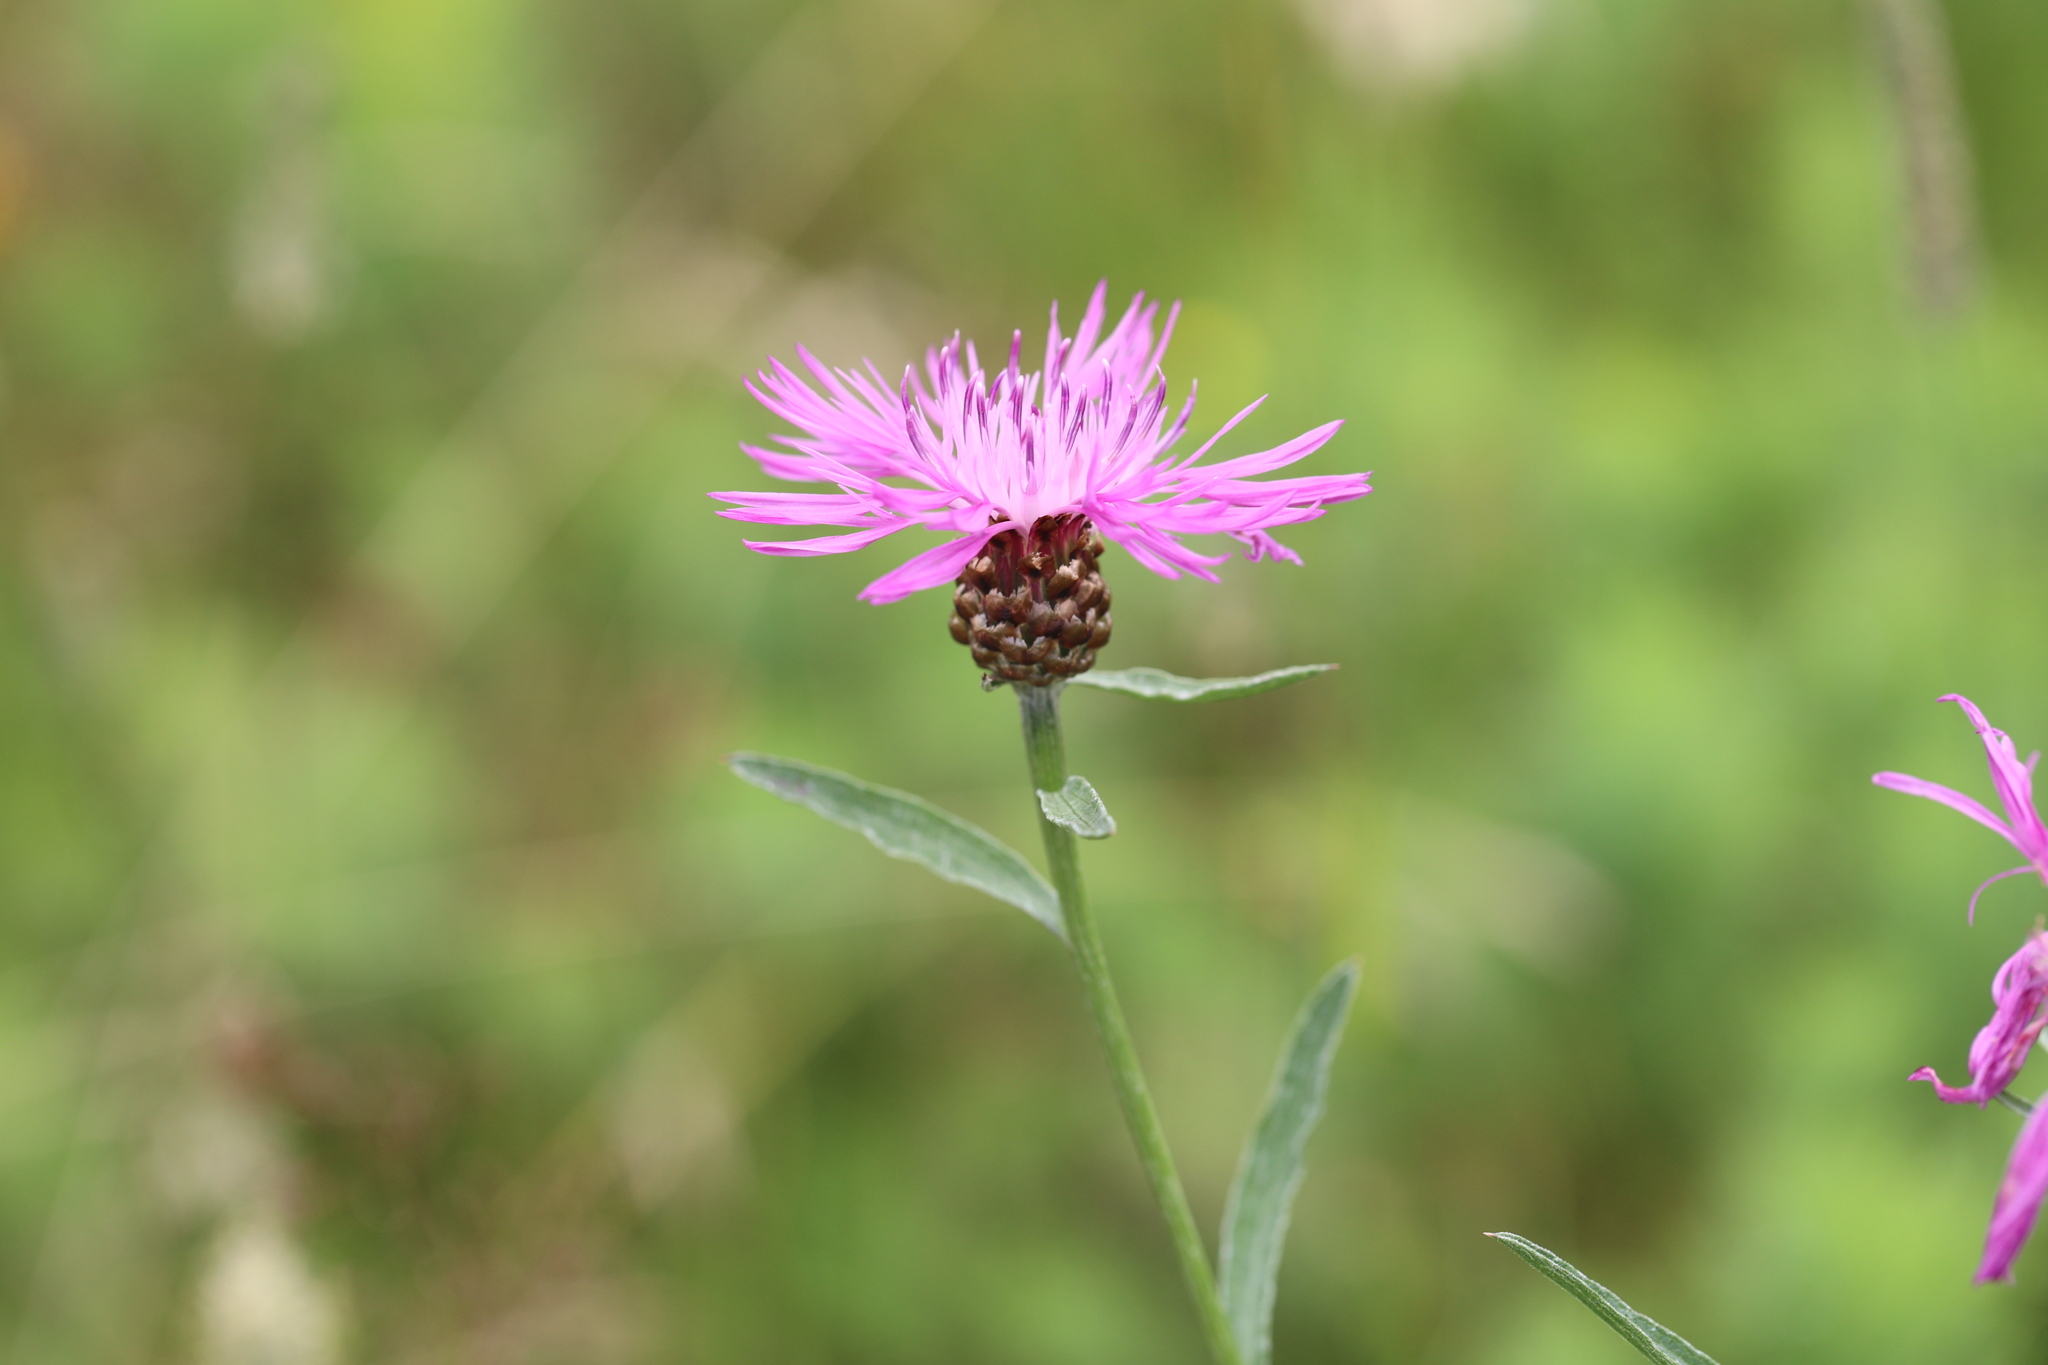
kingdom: Plantae
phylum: Tracheophyta
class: Magnoliopsida
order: Asterales
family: Asteraceae
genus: Centaurea
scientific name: Centaurea jacea
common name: Brown knapweed
